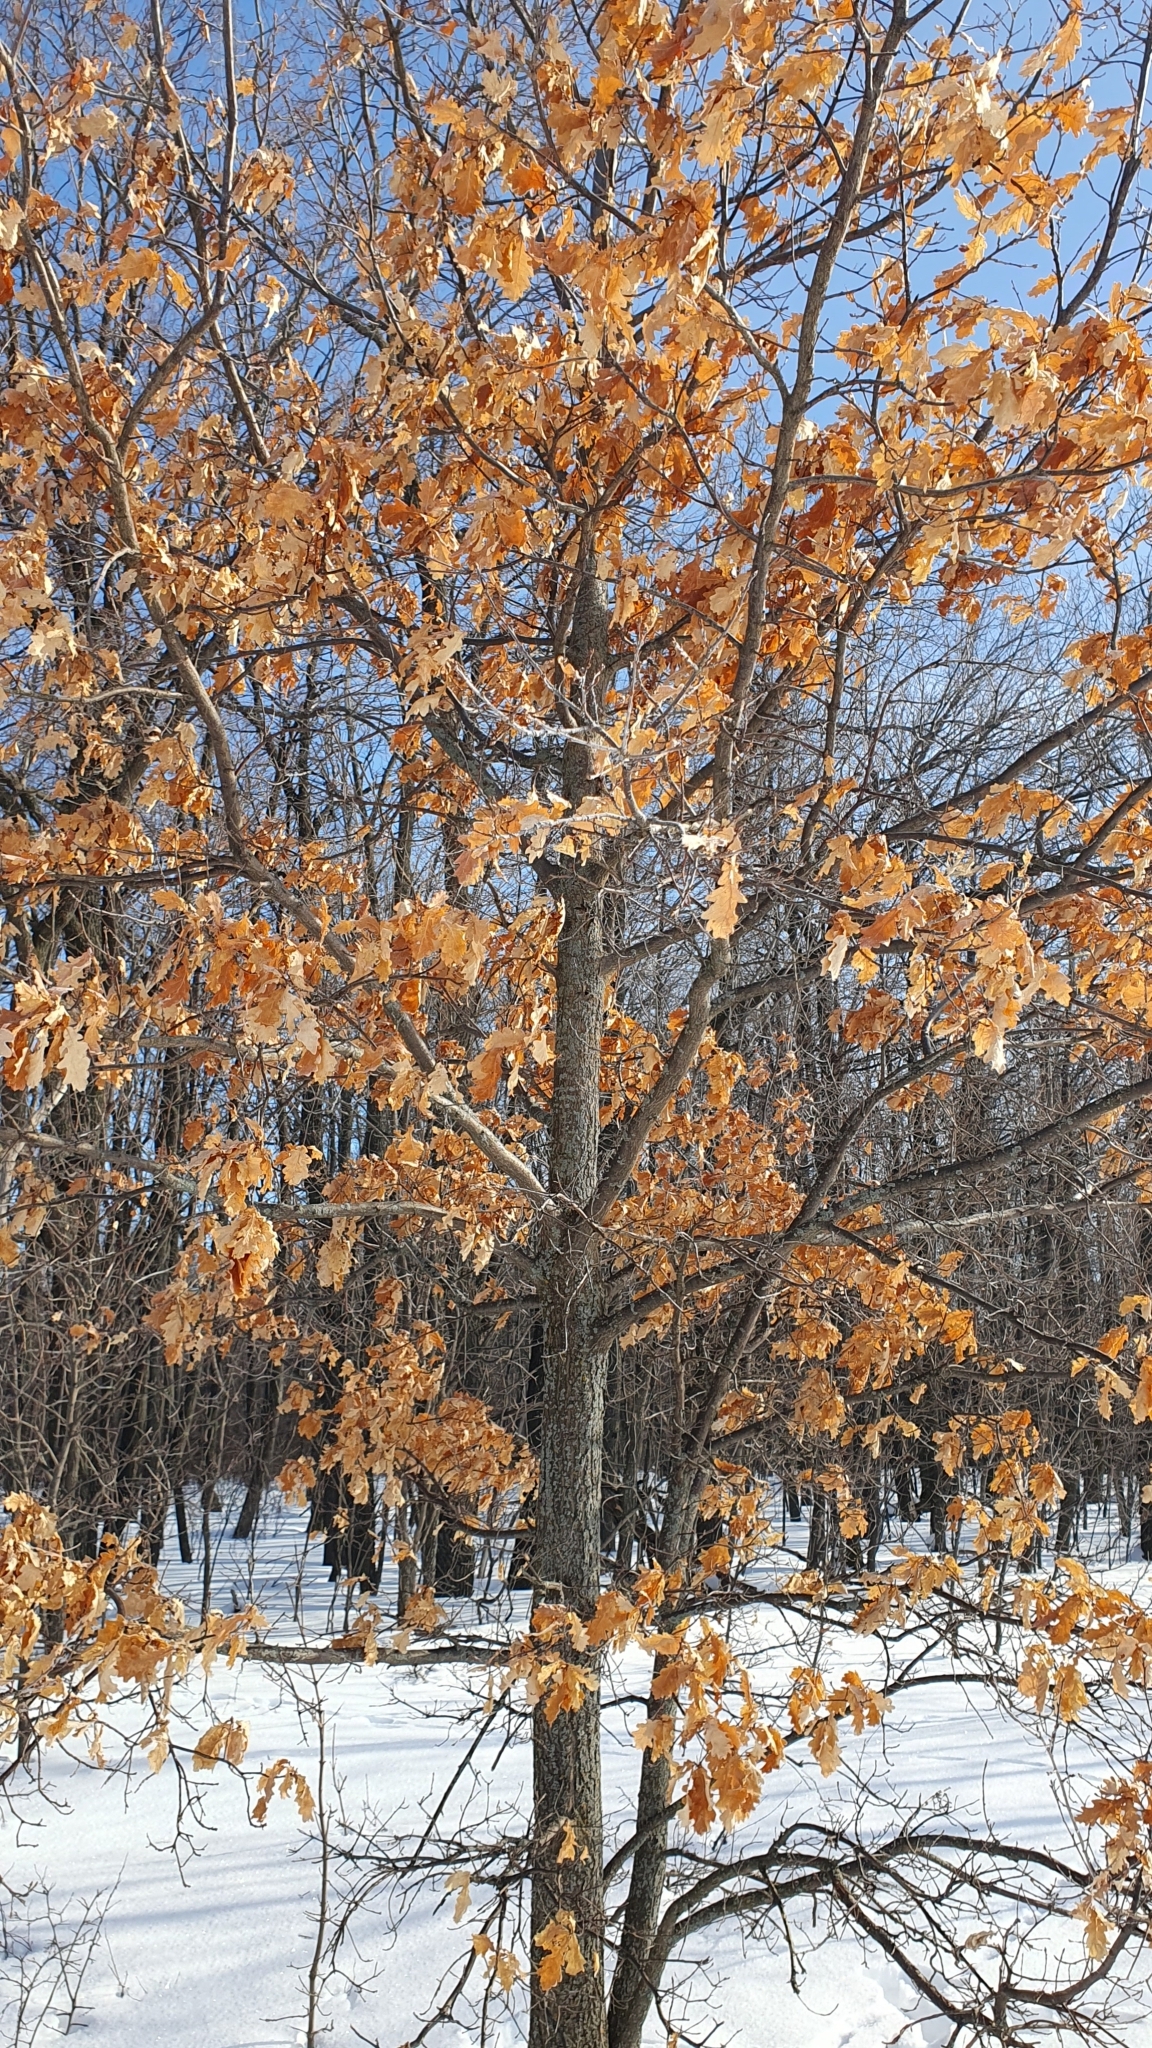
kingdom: Plantae
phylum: Tracheophyta
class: Magnoliopsida
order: Fagales
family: Fagaceae
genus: Quercus
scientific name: Quercus robur
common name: Pedunculate oak
